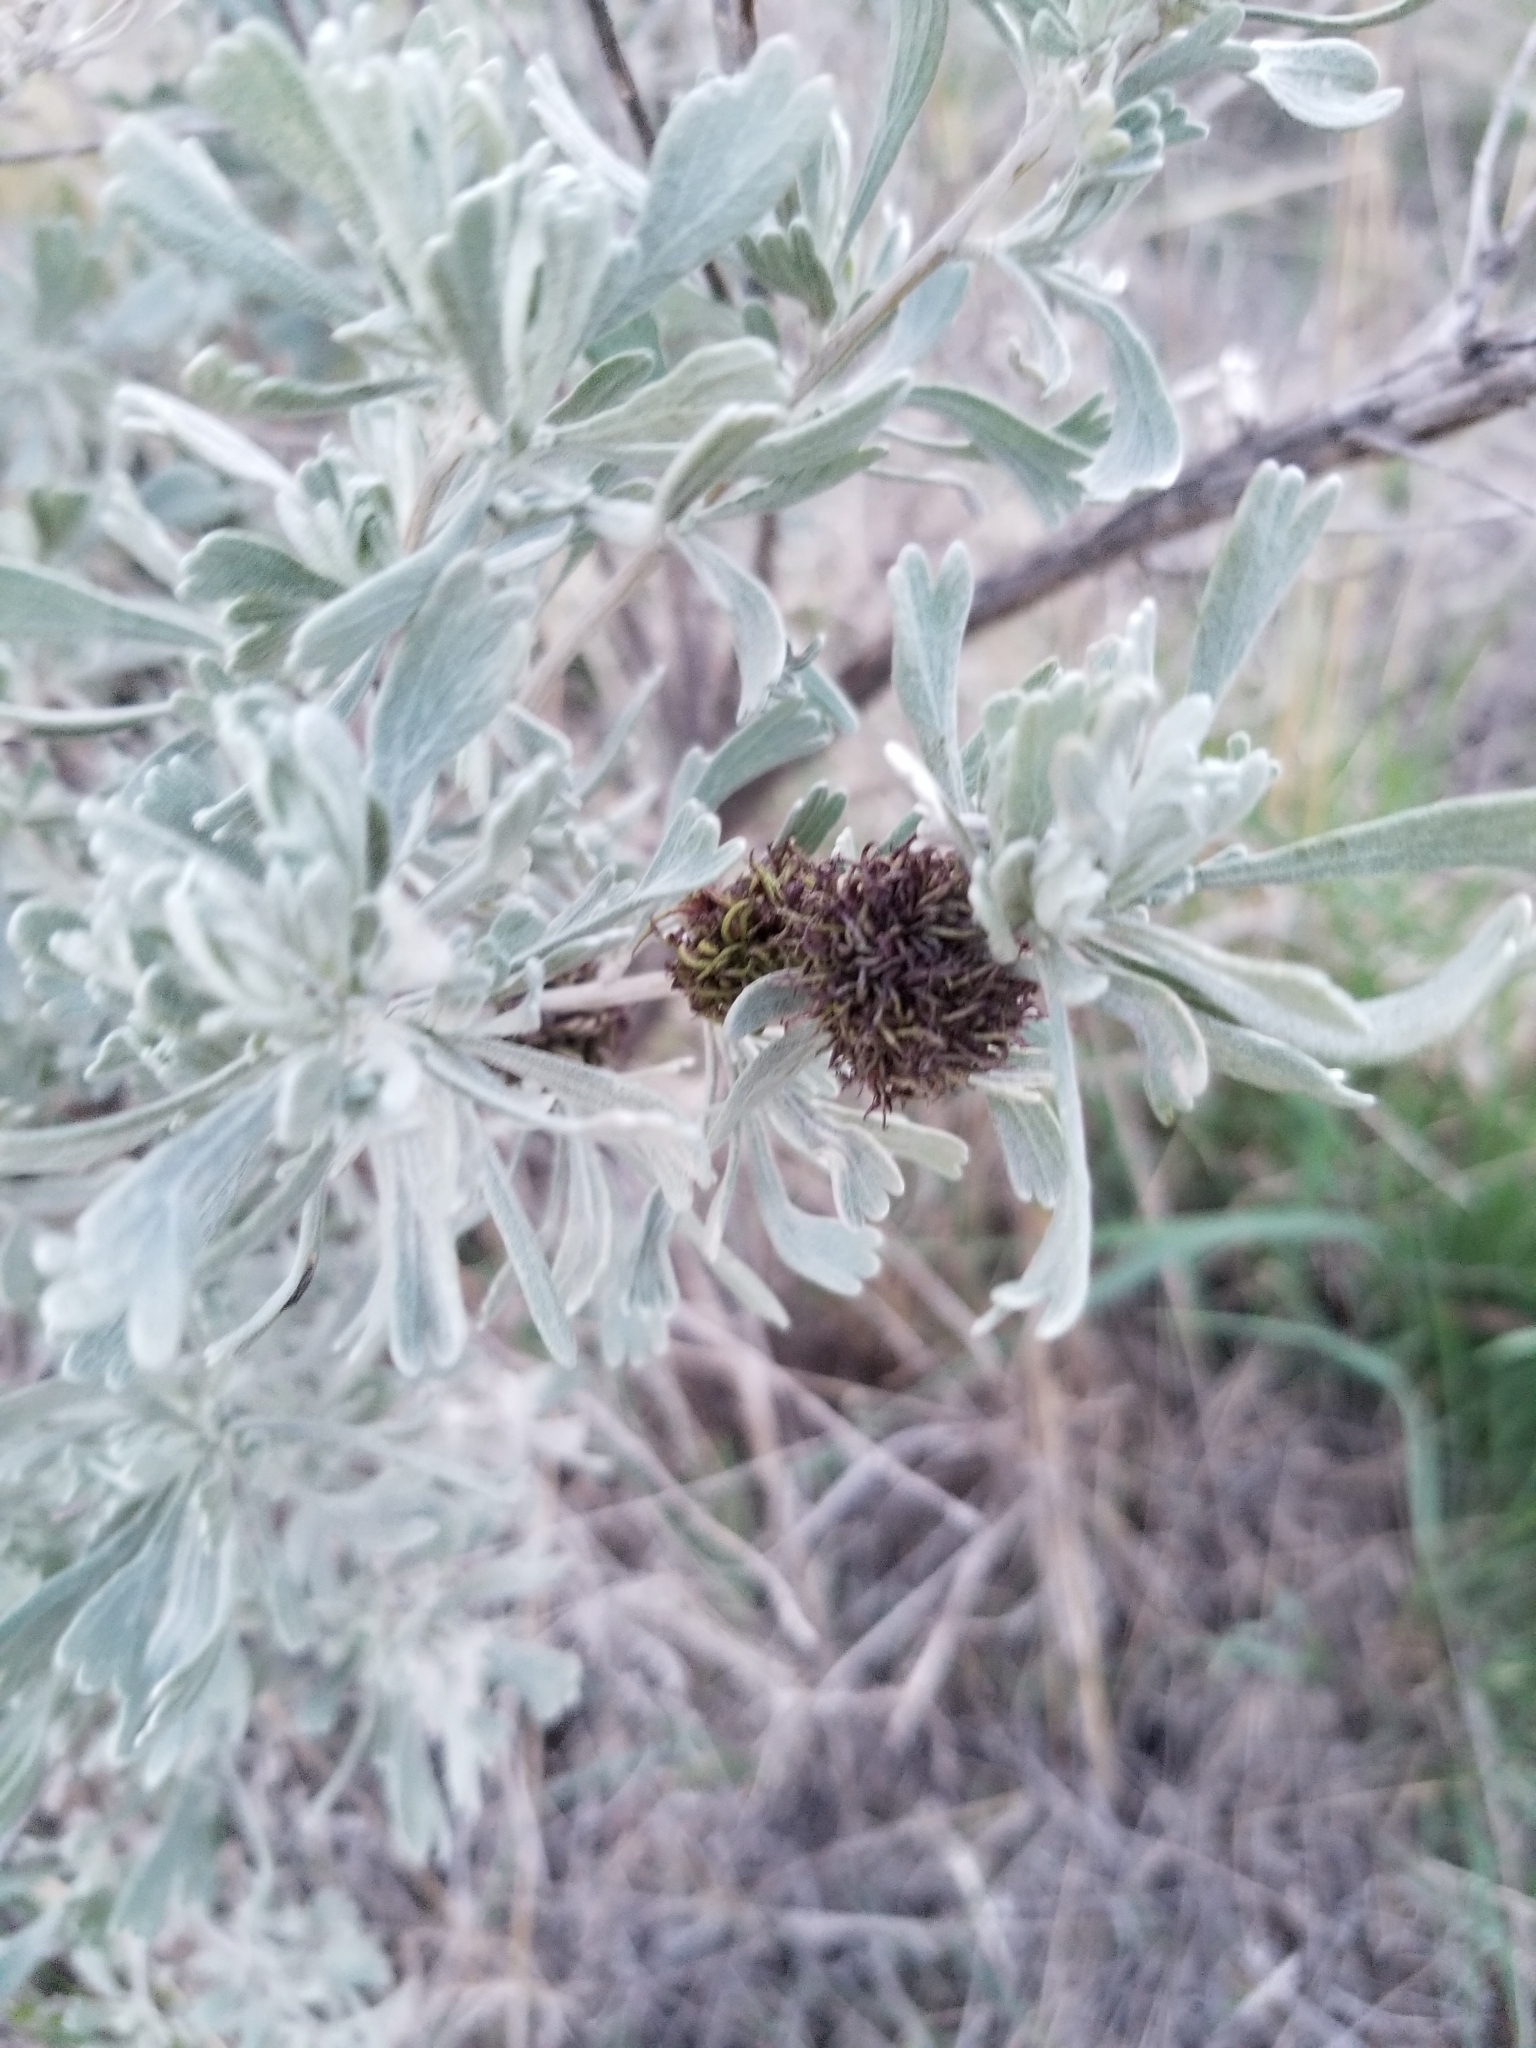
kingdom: Animalia
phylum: Arthropoda
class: Insecta
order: Diptera
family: Cecidomyiidae
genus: Rhopalomyia
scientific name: Rhopalomyia medusa
